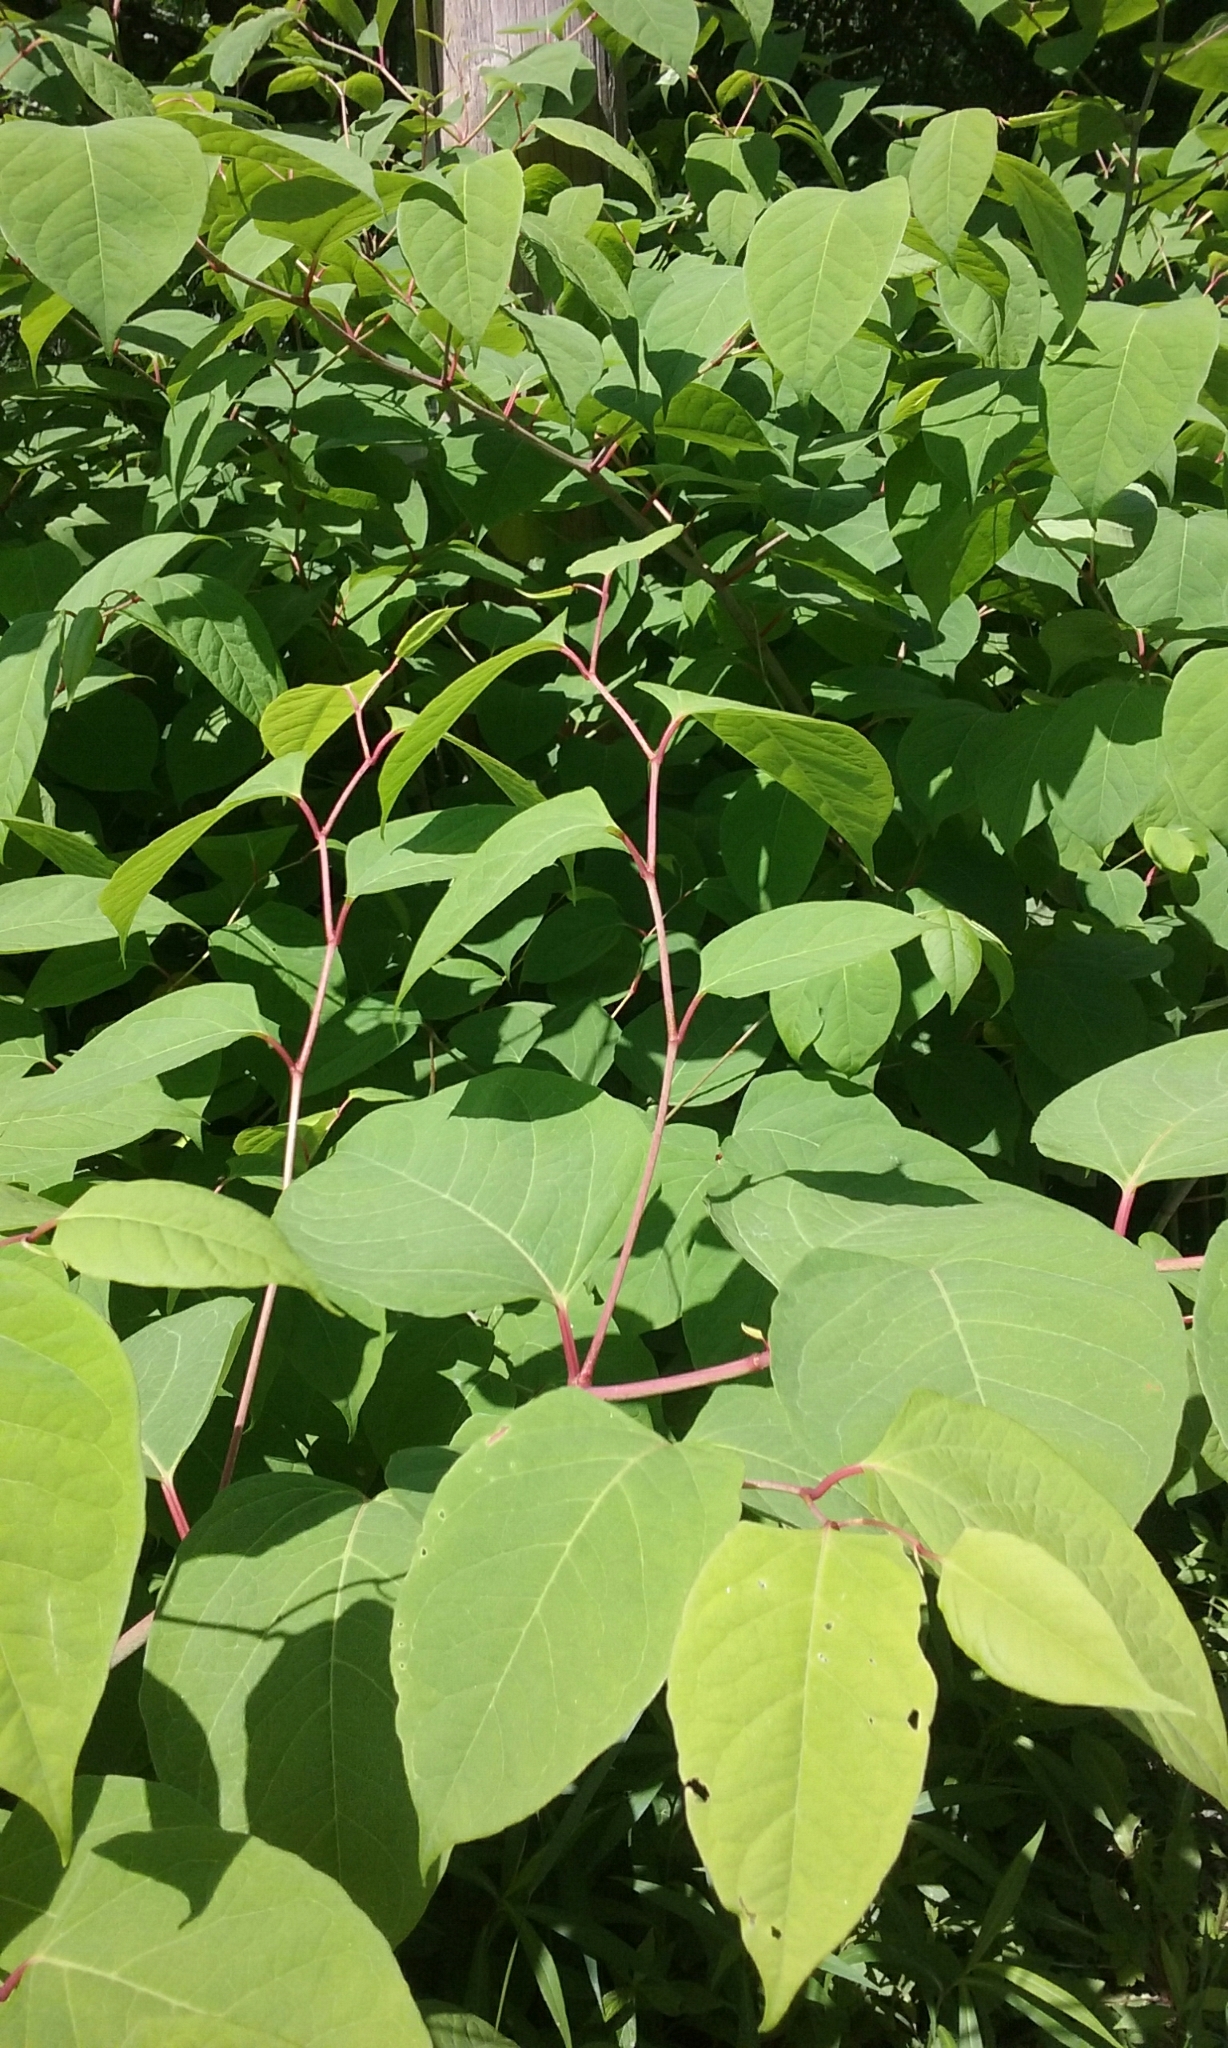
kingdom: Plantae
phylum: Tracheophyta
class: Magnoliopsida
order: Caryophyllales
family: Polygonaceae
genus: Reynoutria
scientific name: Reynoutria japonica
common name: Japanese knotweed
